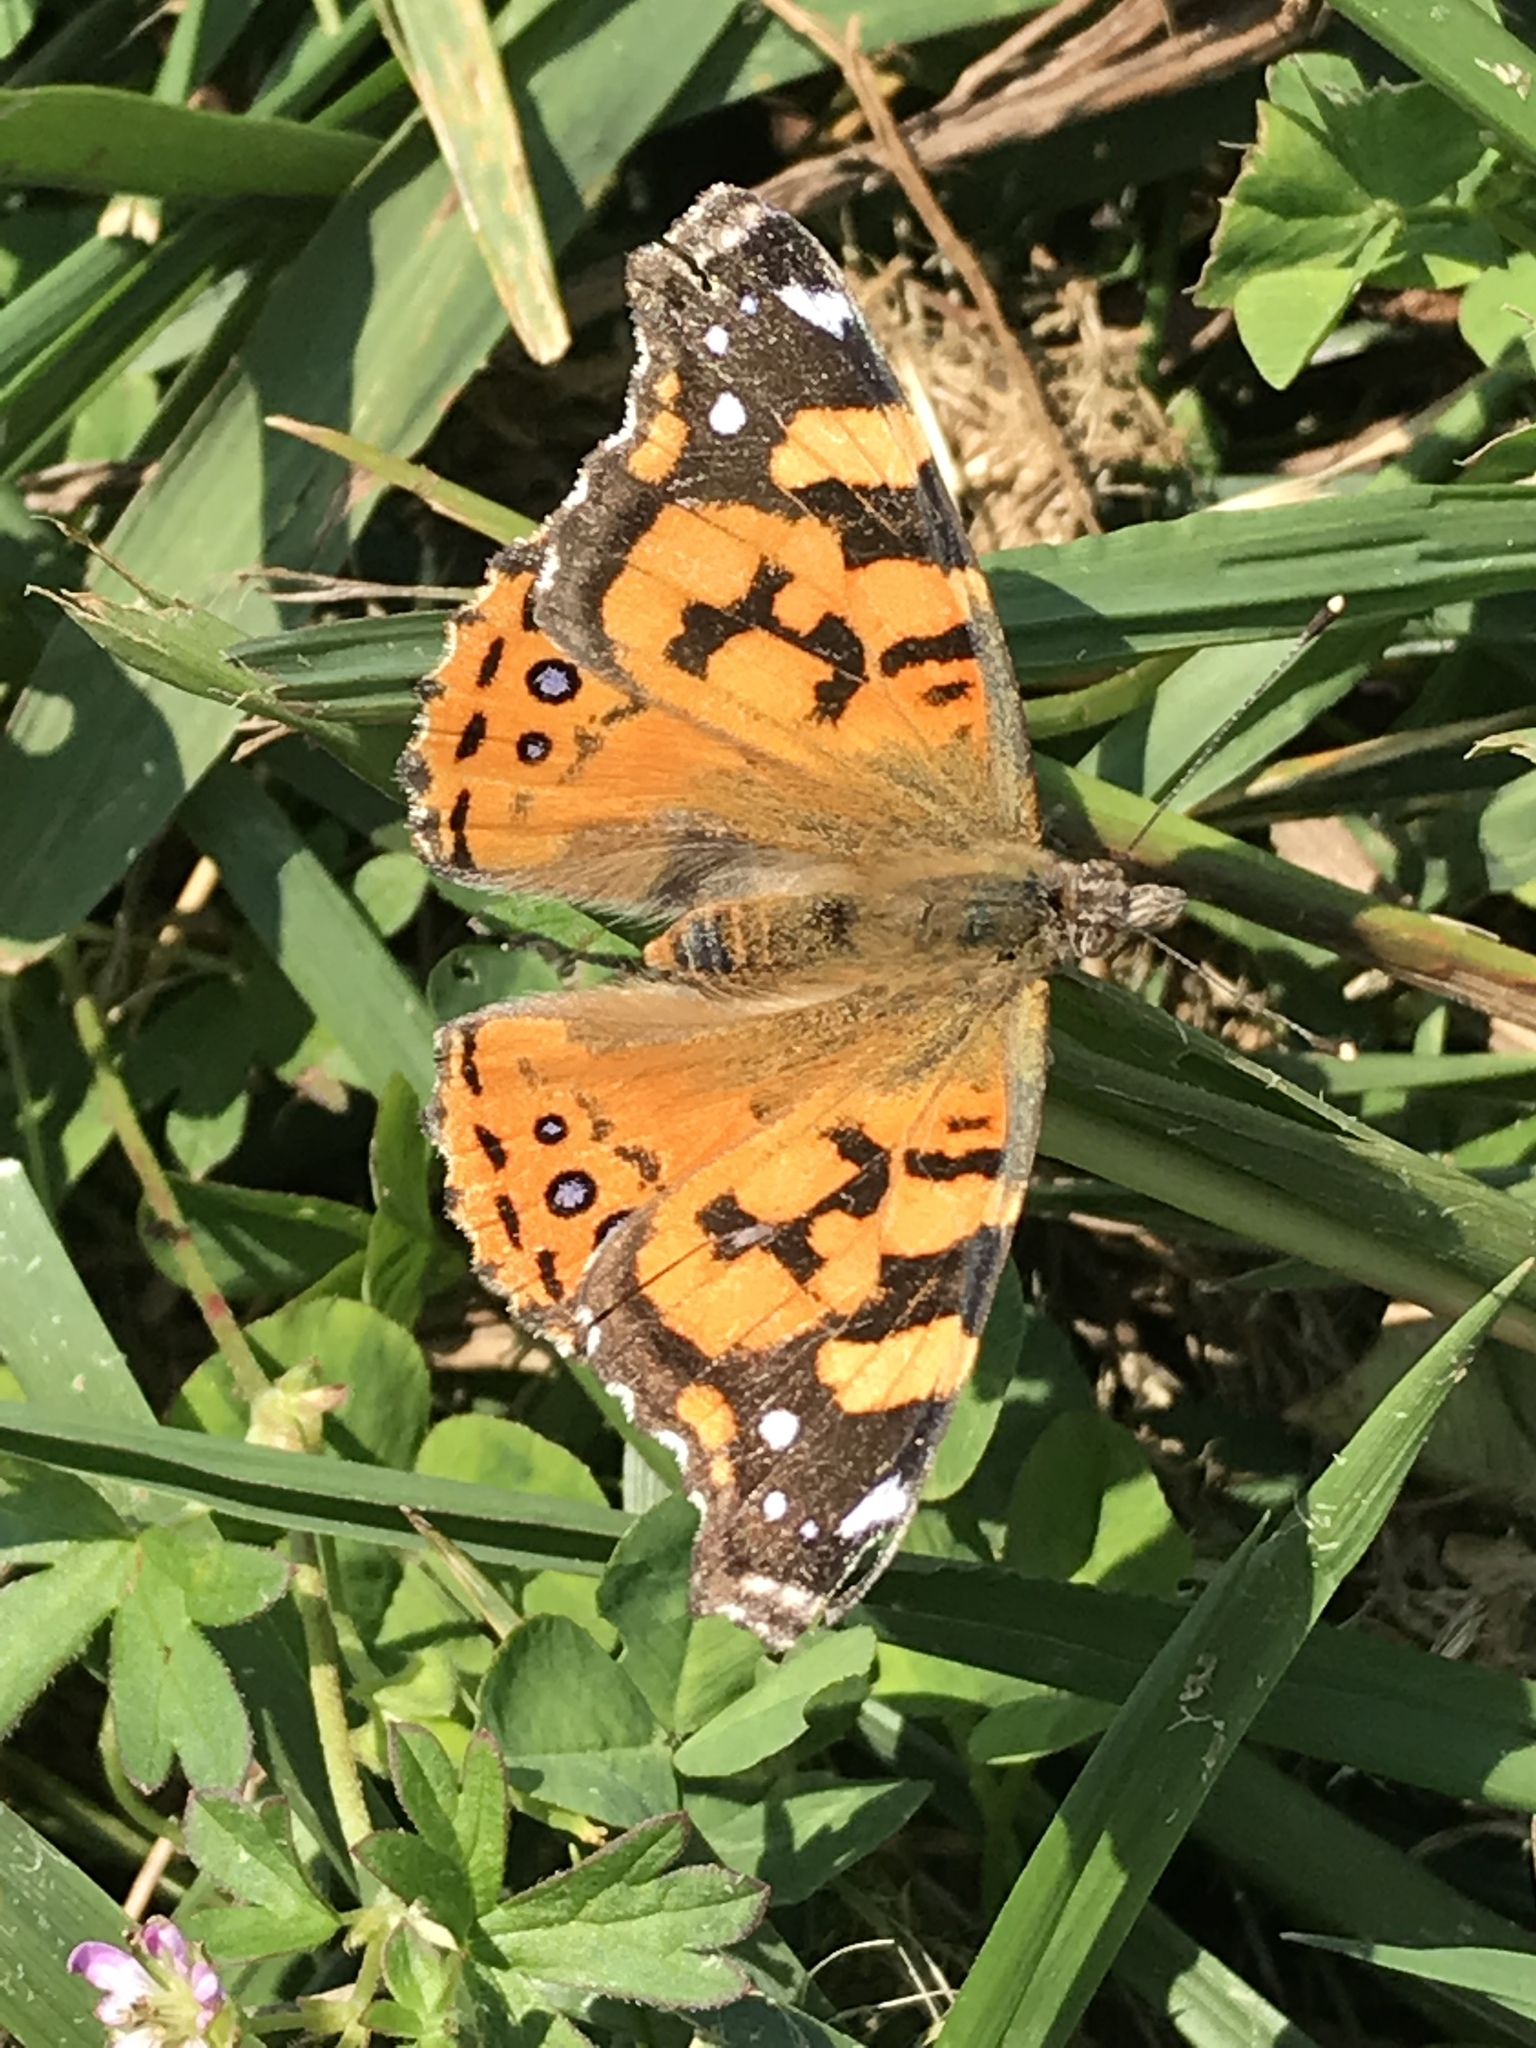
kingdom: Animalia
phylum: Arthropoda
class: Insecta
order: Lepidoptera
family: Nymphalidae
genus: Vanessa
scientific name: Vanessa annabella
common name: West coast lady
